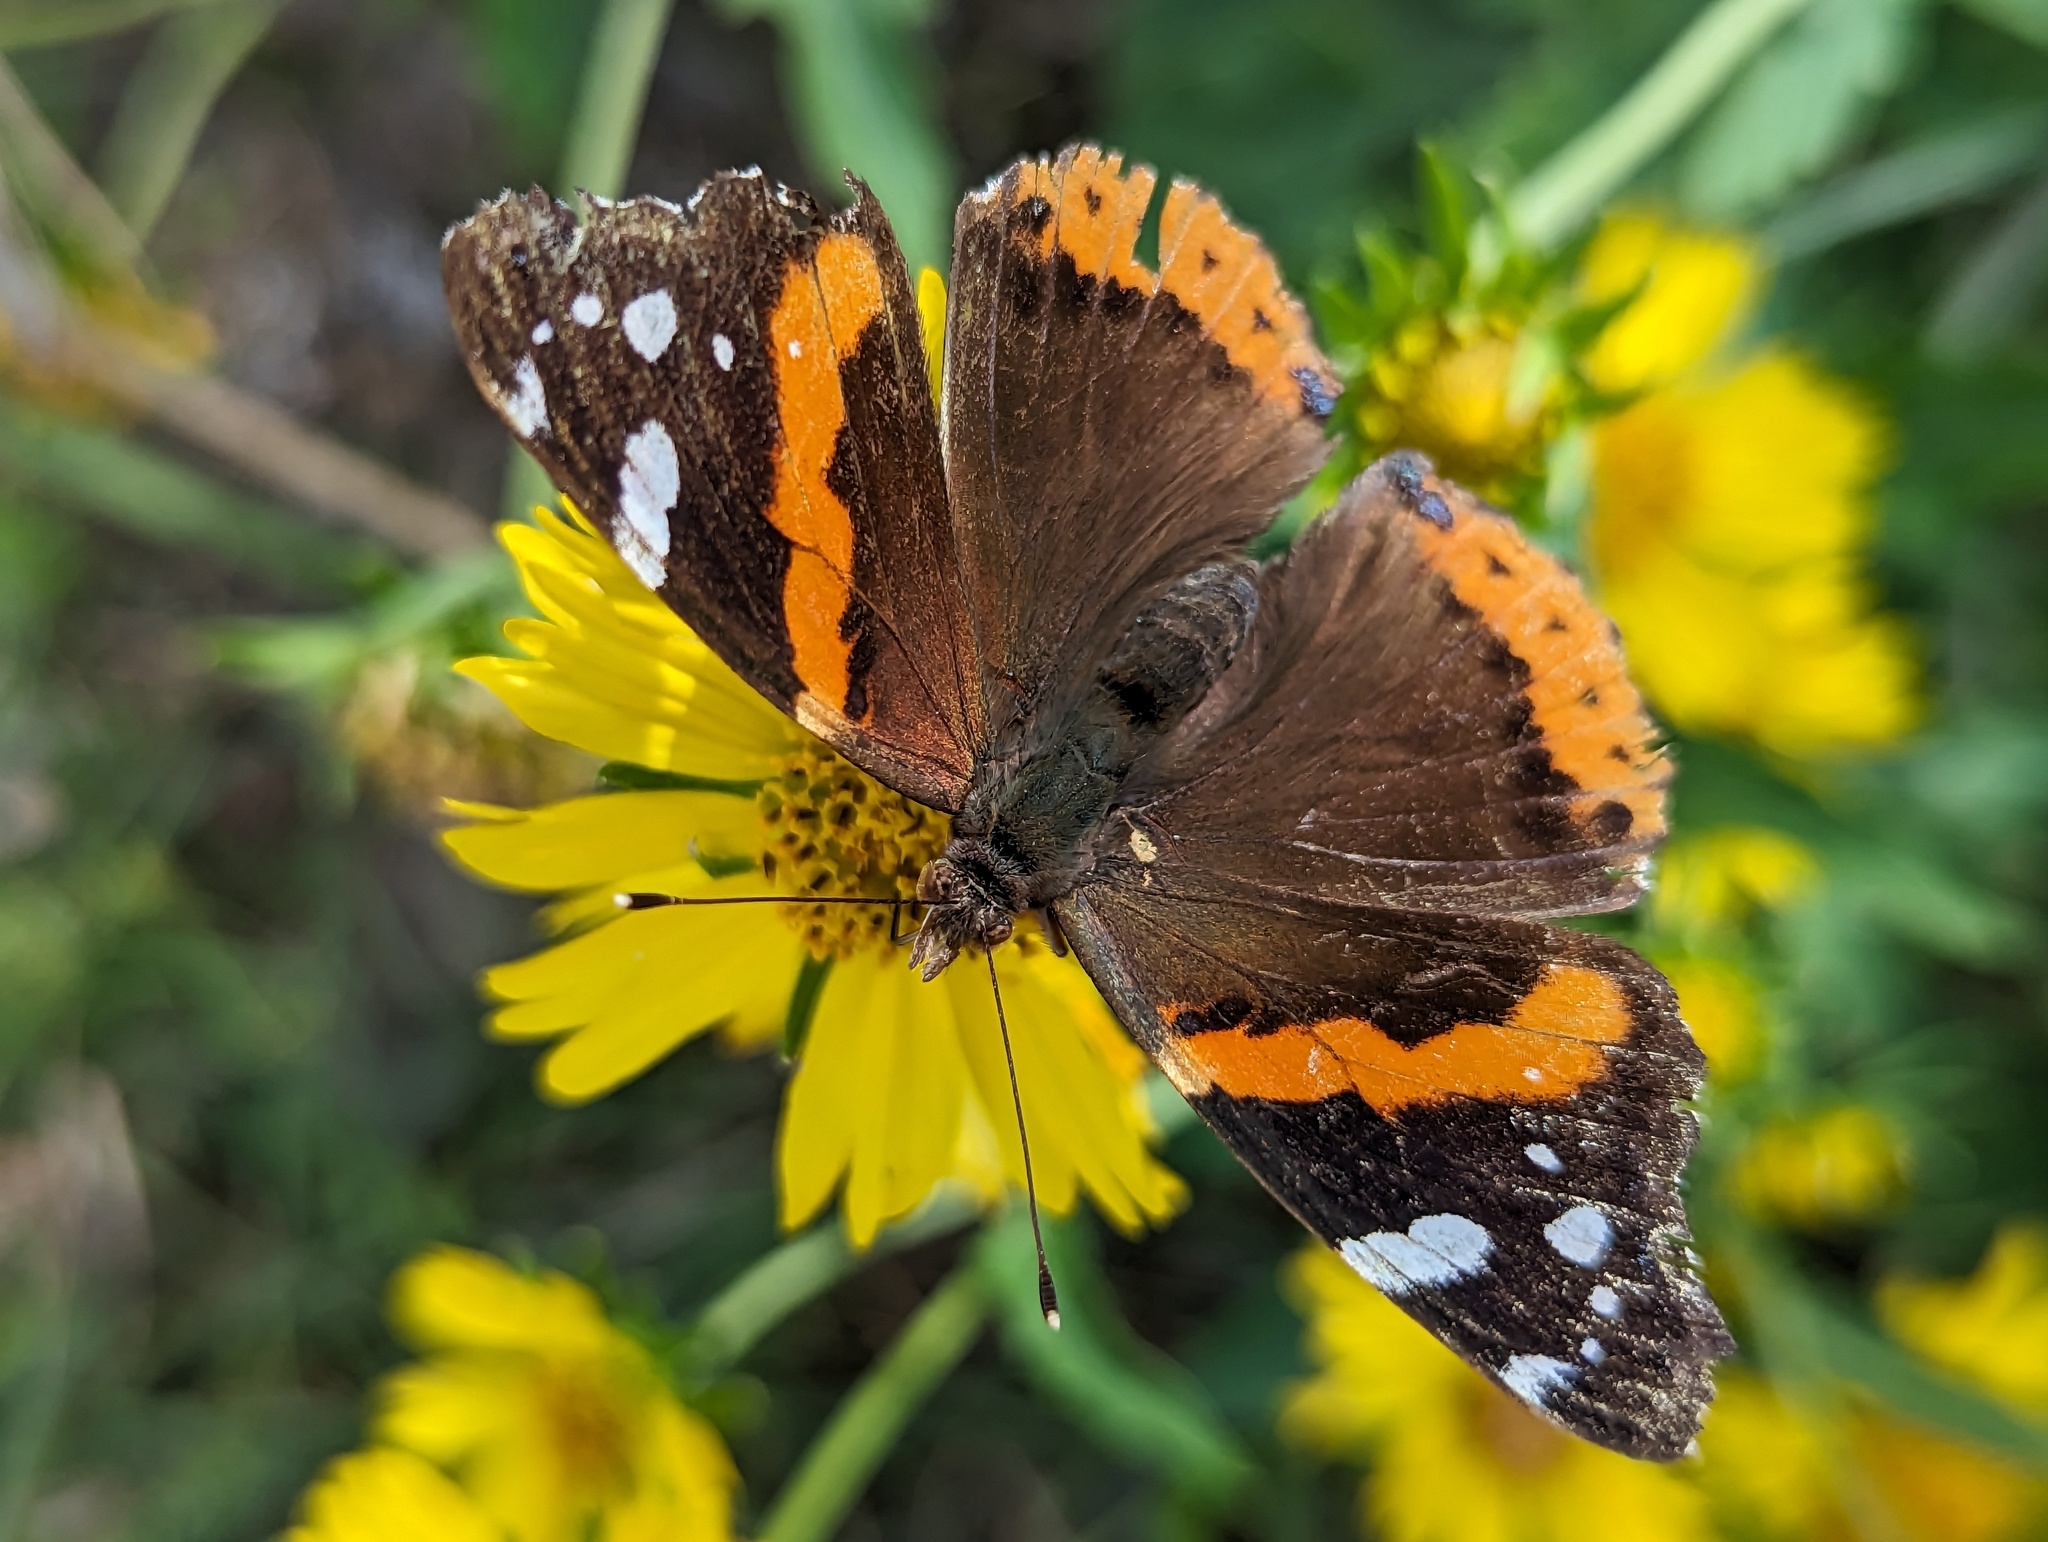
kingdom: Animalia
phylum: Arthropoda
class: Insecta
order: Lepidoptera
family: Nymphalidae
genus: Vanessa
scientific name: Vanessa atalanta
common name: Red admiral
